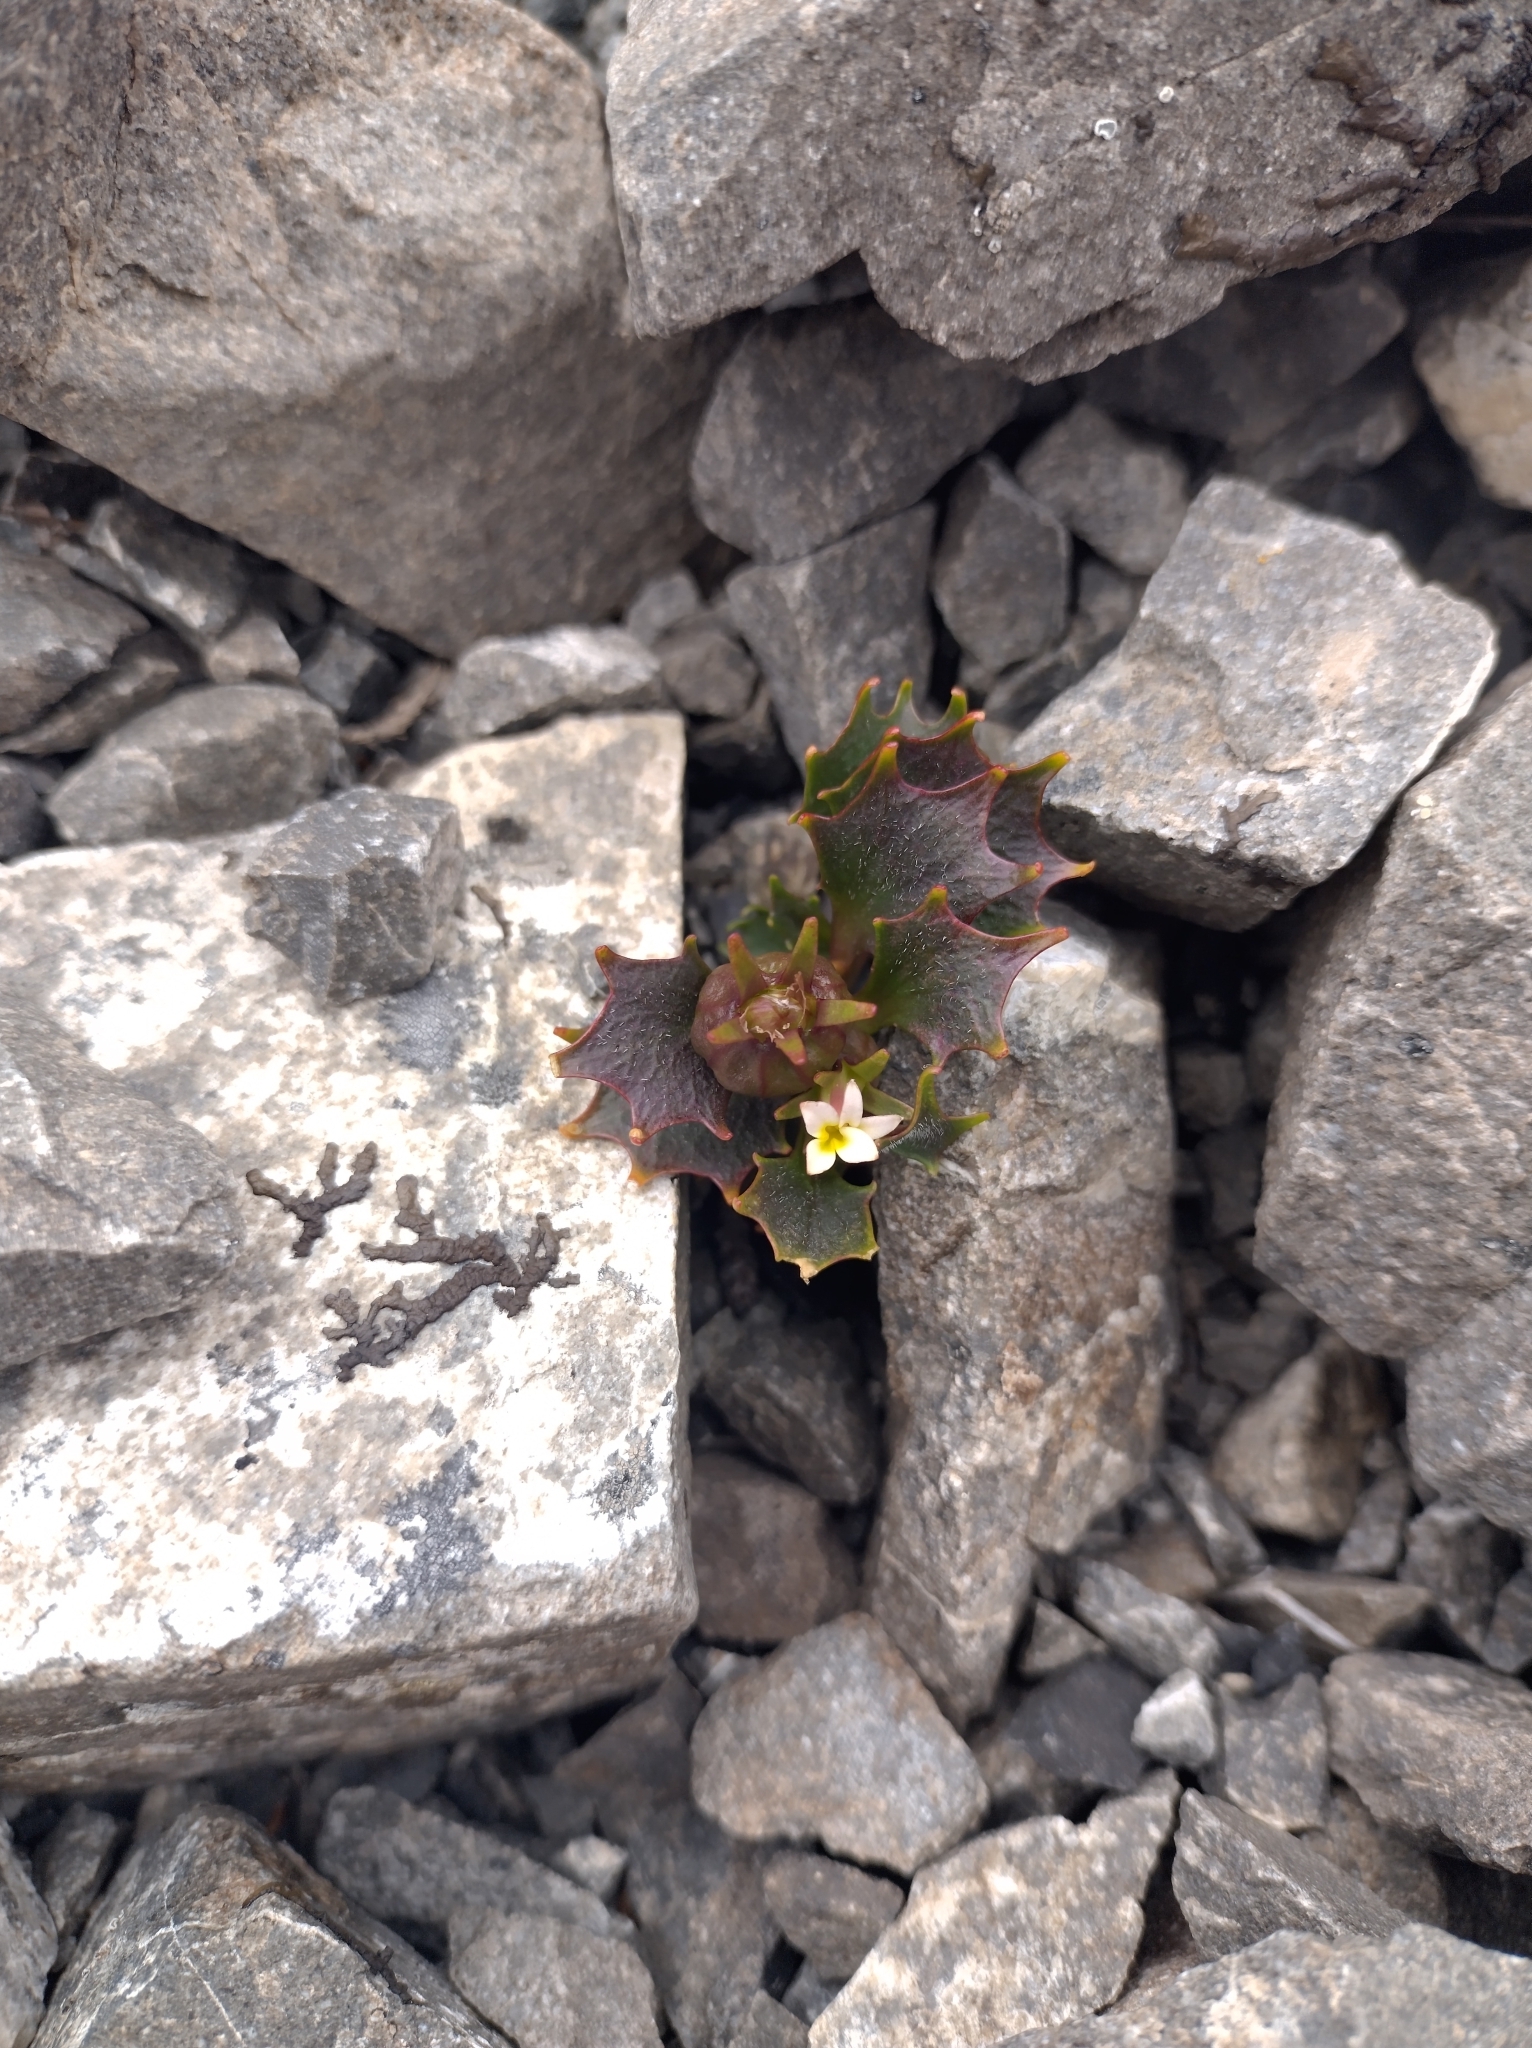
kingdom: Plantae
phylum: Tracheophyta
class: Magnoliopsida
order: Asterales
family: Campanulaceae
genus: Lobelia
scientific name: Lobelia roughii
